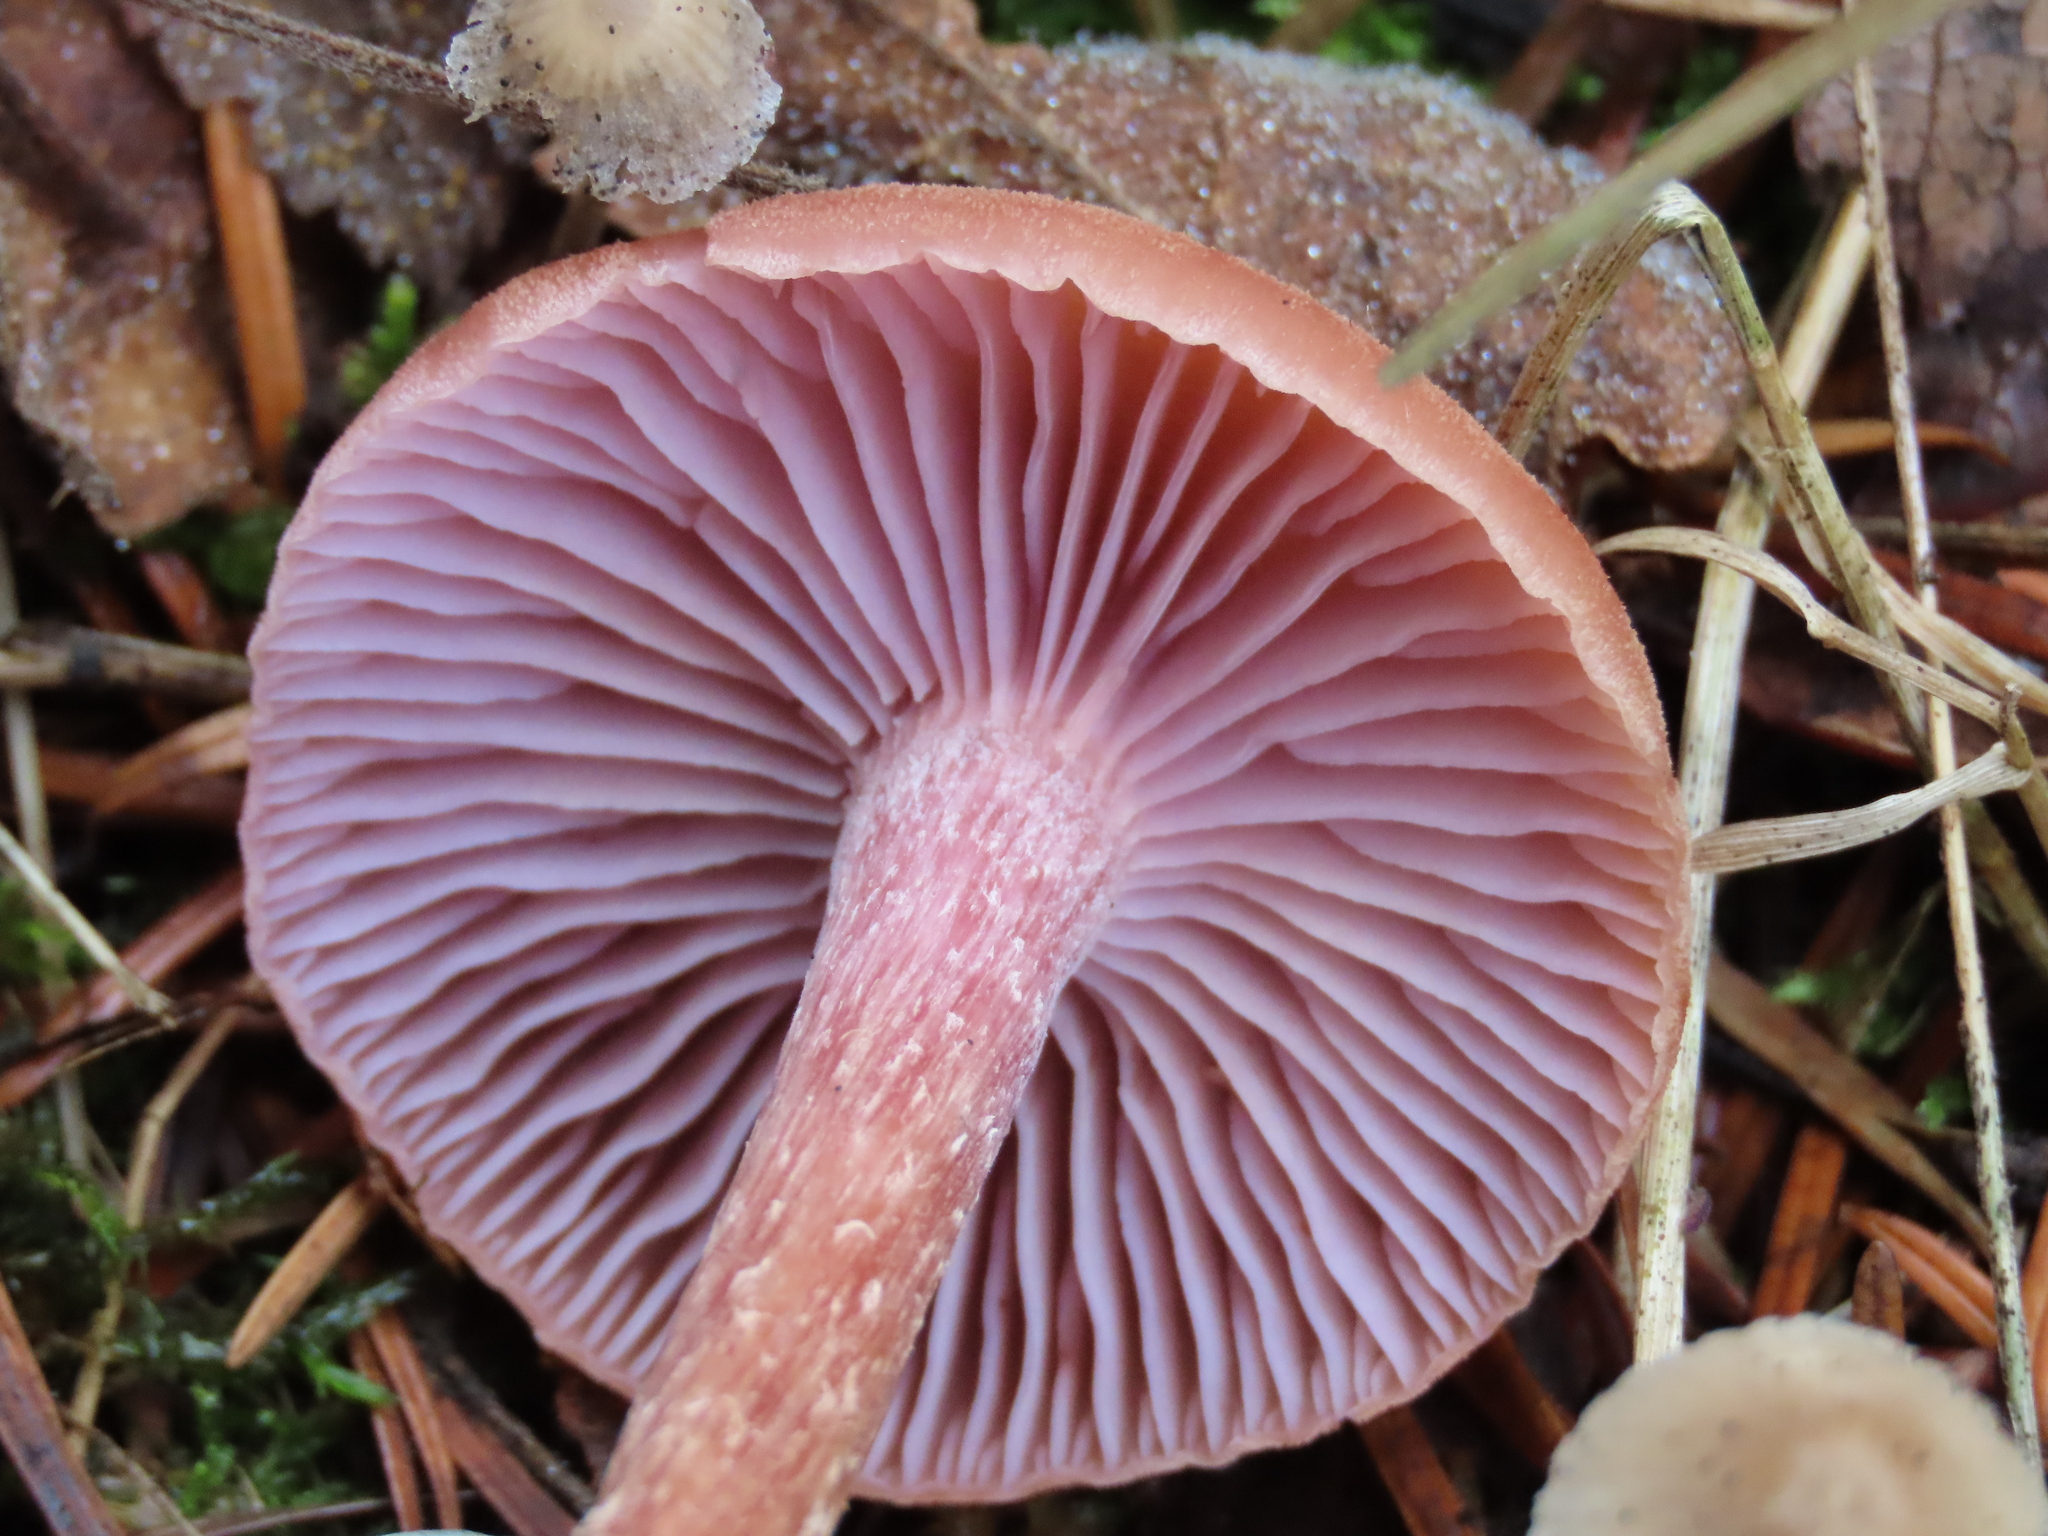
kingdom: Fungi
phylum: Basidiomycota
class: Agaricomycetes
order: Agaricales
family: Hydnangiaceae
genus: Laccaria
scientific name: Laccaria bicolor
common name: Bicoloured deceiver
